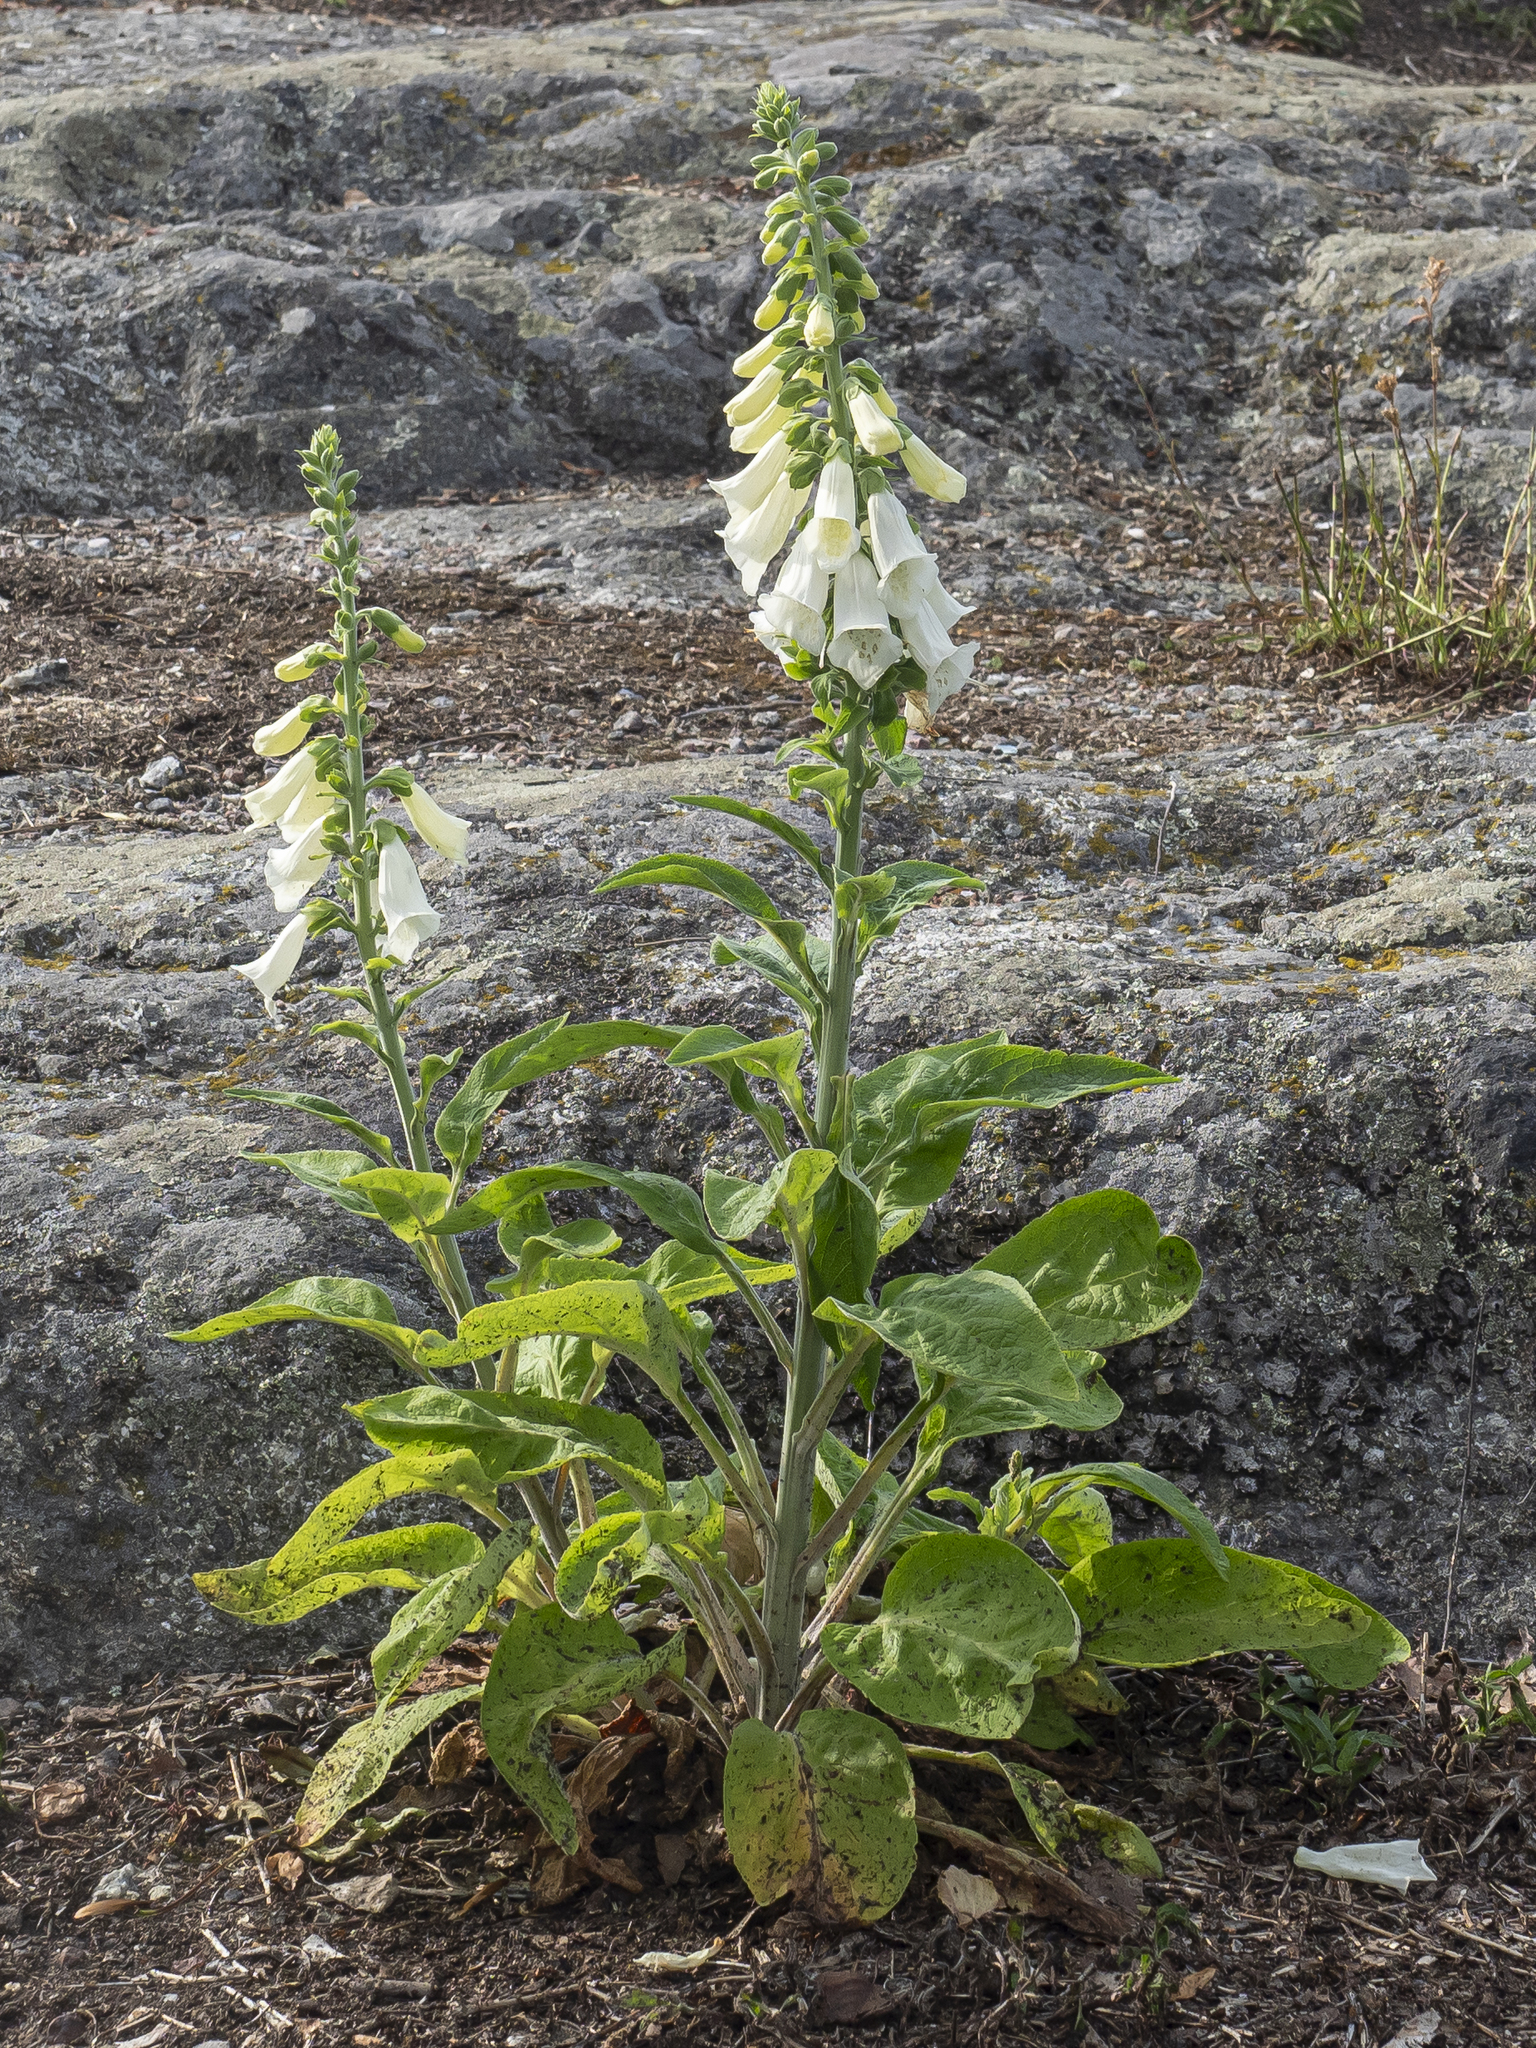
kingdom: Plantae
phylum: Tracheophyta
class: Magnoliopsida
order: Lamiales
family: Plantaginaceae
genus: Digitalis
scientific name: Digitalis purpurea
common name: Foxglove
